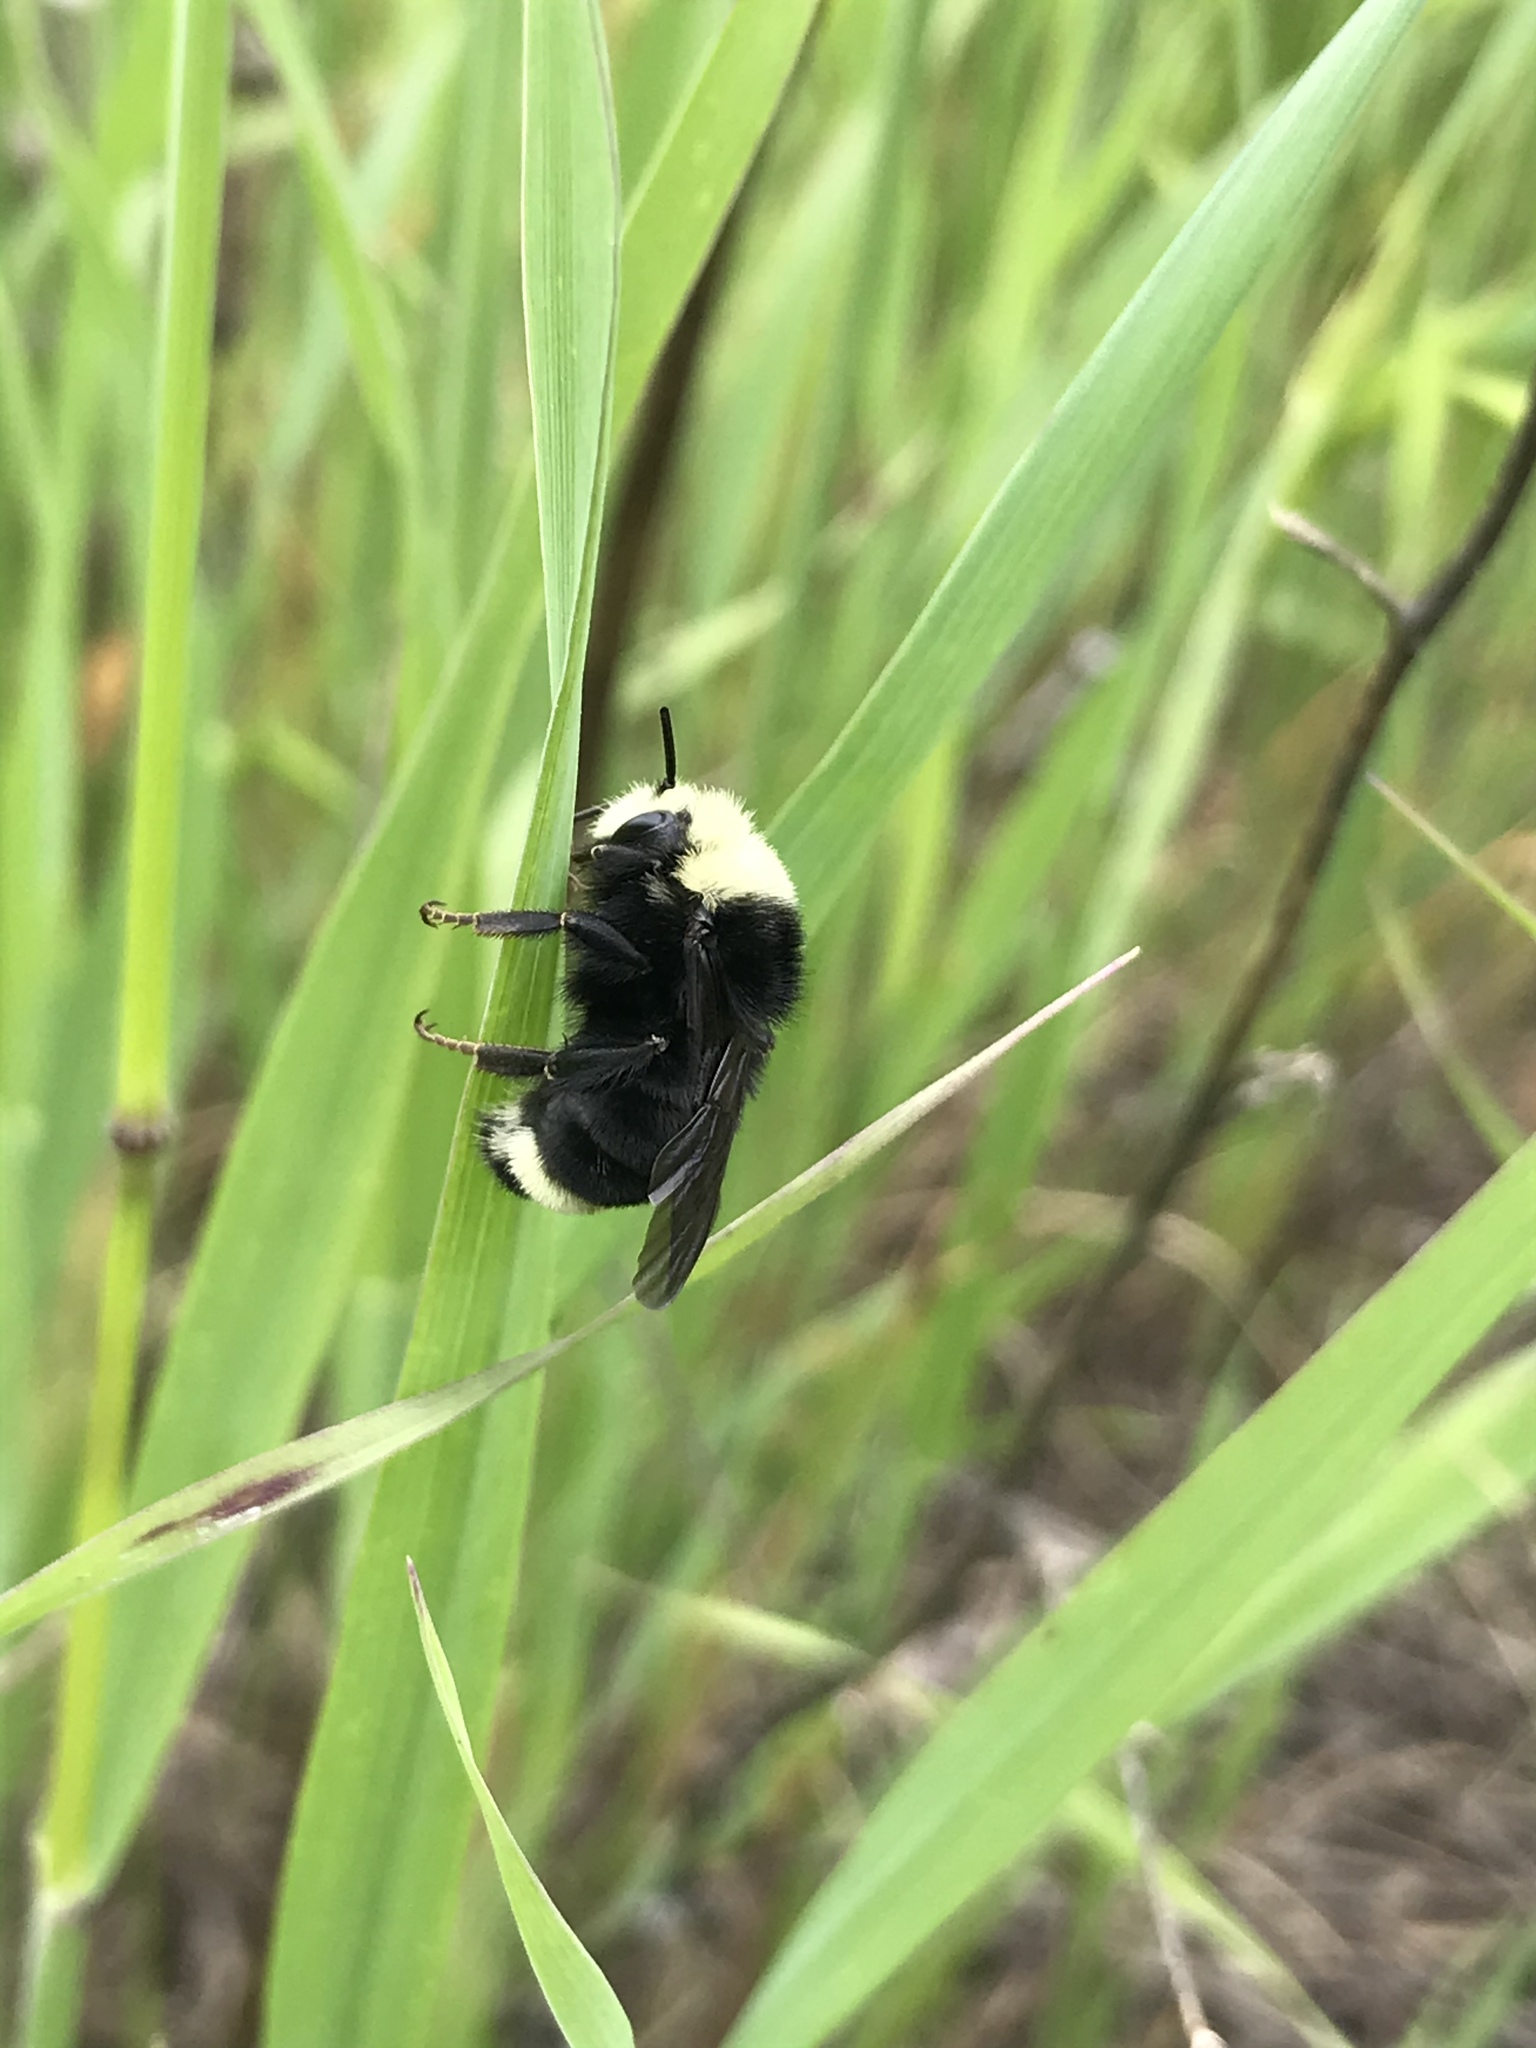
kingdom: Animalia
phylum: Arthropoda
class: Insecta
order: Hymenoptera
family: Apidae
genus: Bombus
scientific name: Bombus vosnesenskii
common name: Vosnesensky bumble bee
